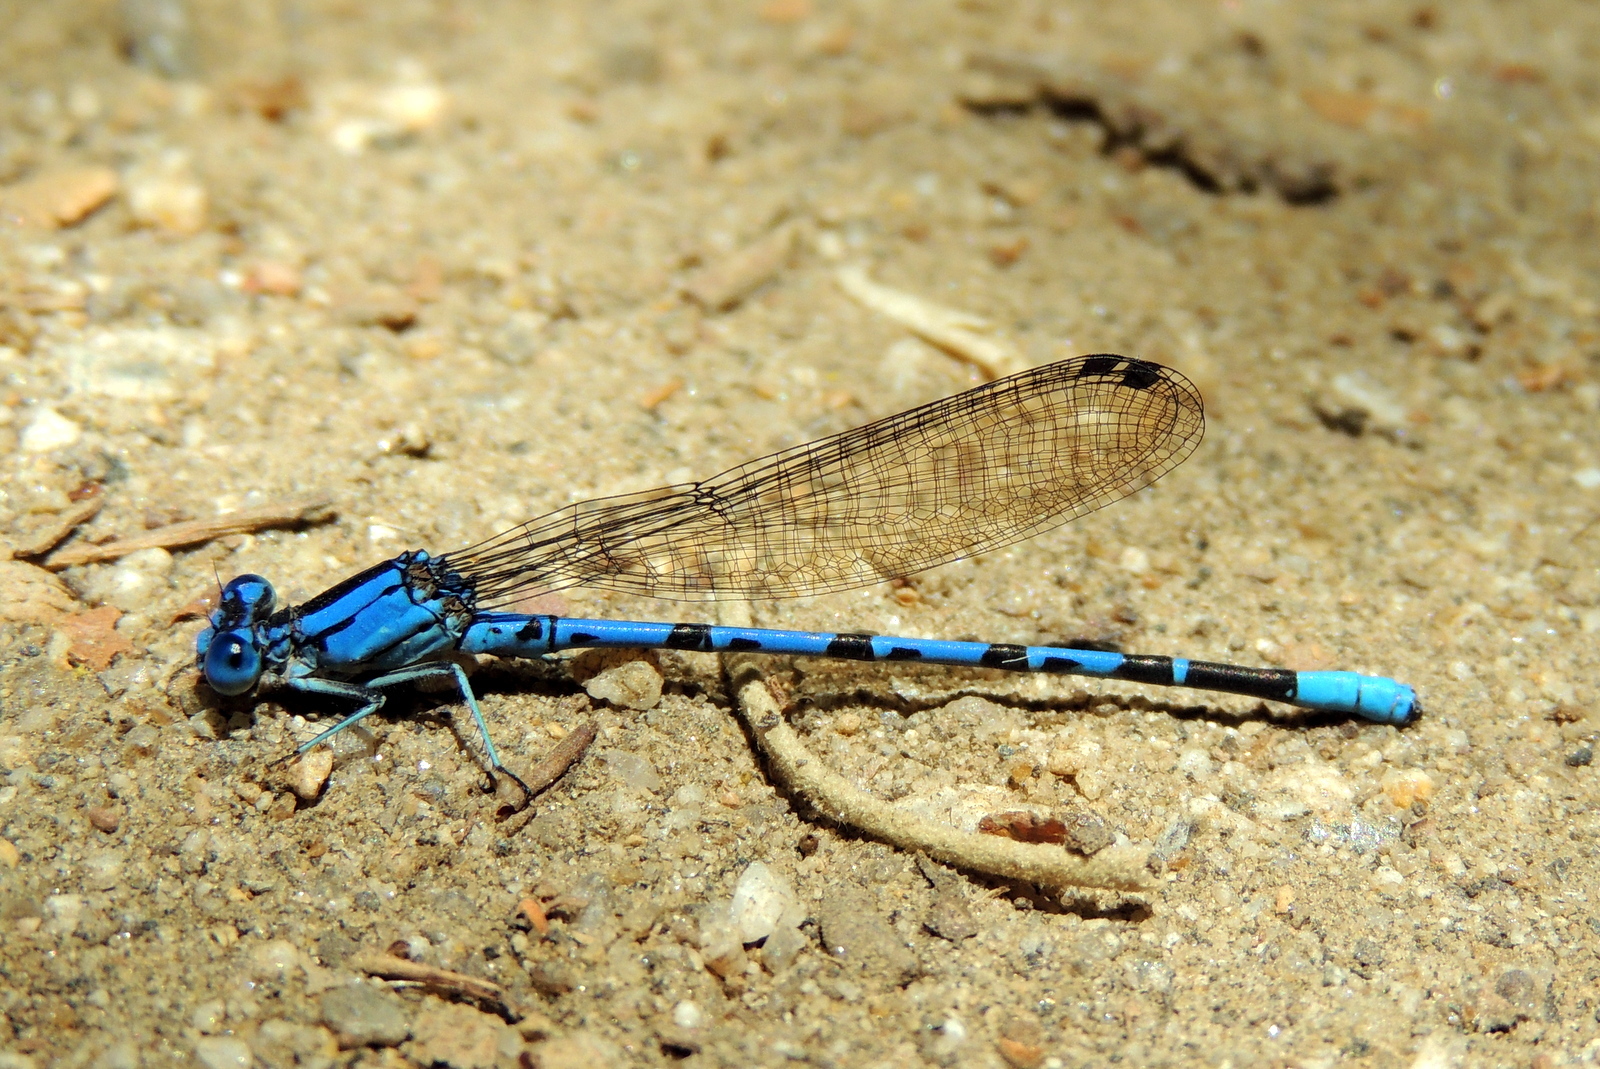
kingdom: Animalia
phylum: Arthropoda
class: Insecta
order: Odonata
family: Coenagrionidae
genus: Argia
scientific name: Argia vivida
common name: Vivid dancer
